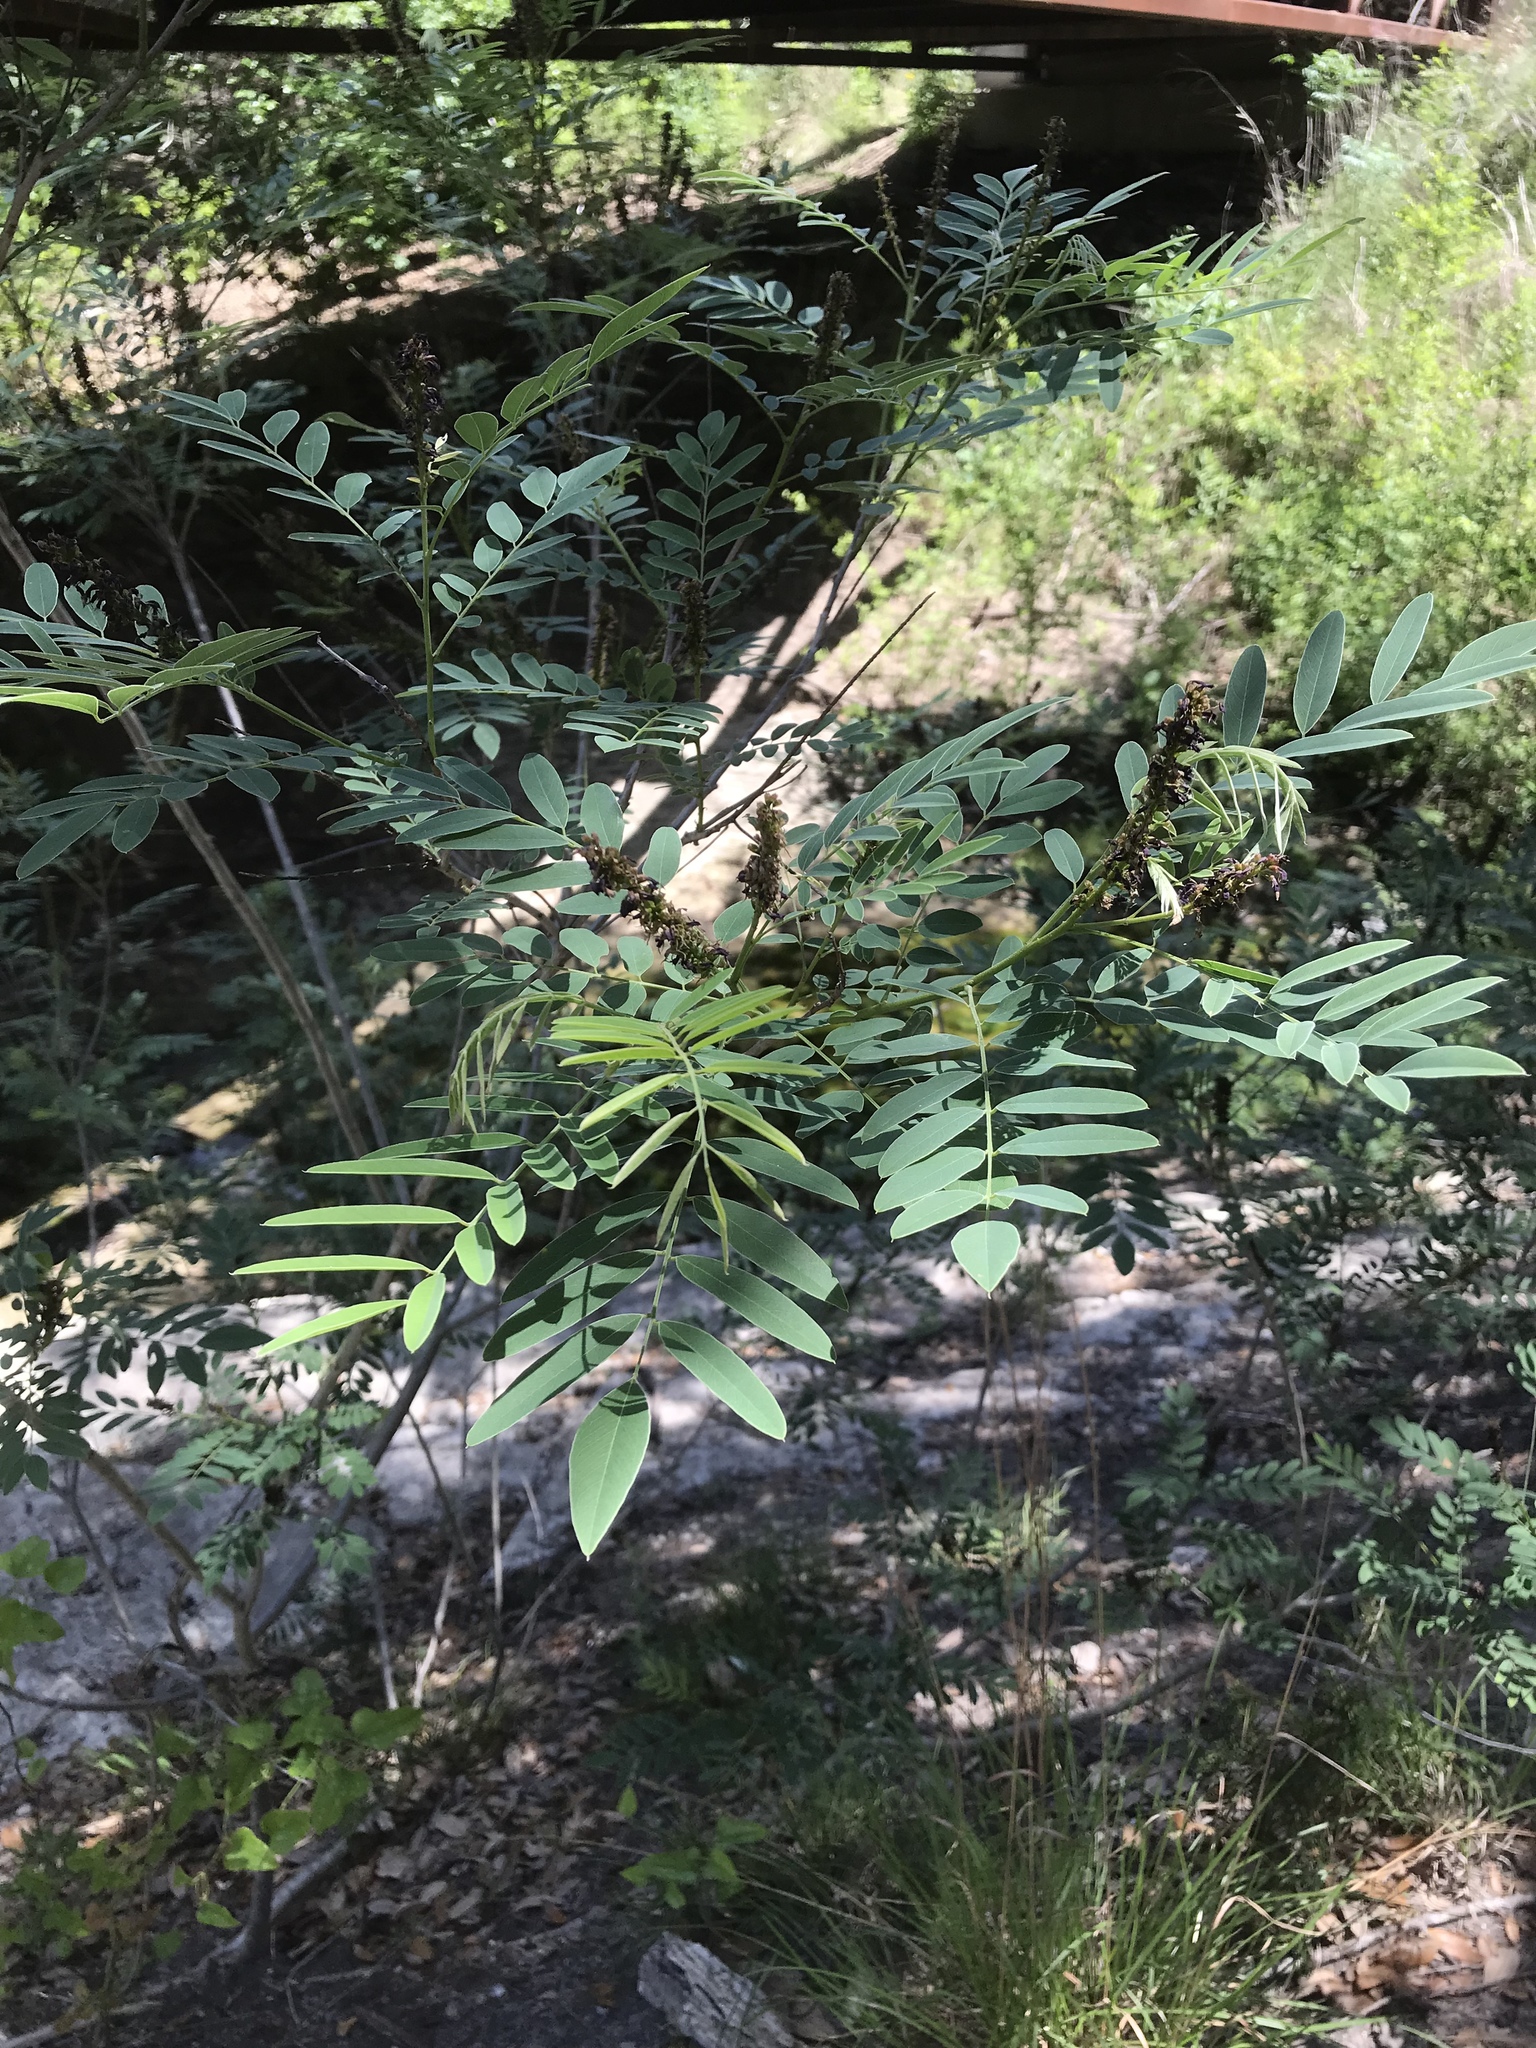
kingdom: Plantae
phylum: Tracheophyta
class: Magnoliopsida
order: Fabales
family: Fabaceae
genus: Amorpha
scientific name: Amorpha fruticosa
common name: False indigo
